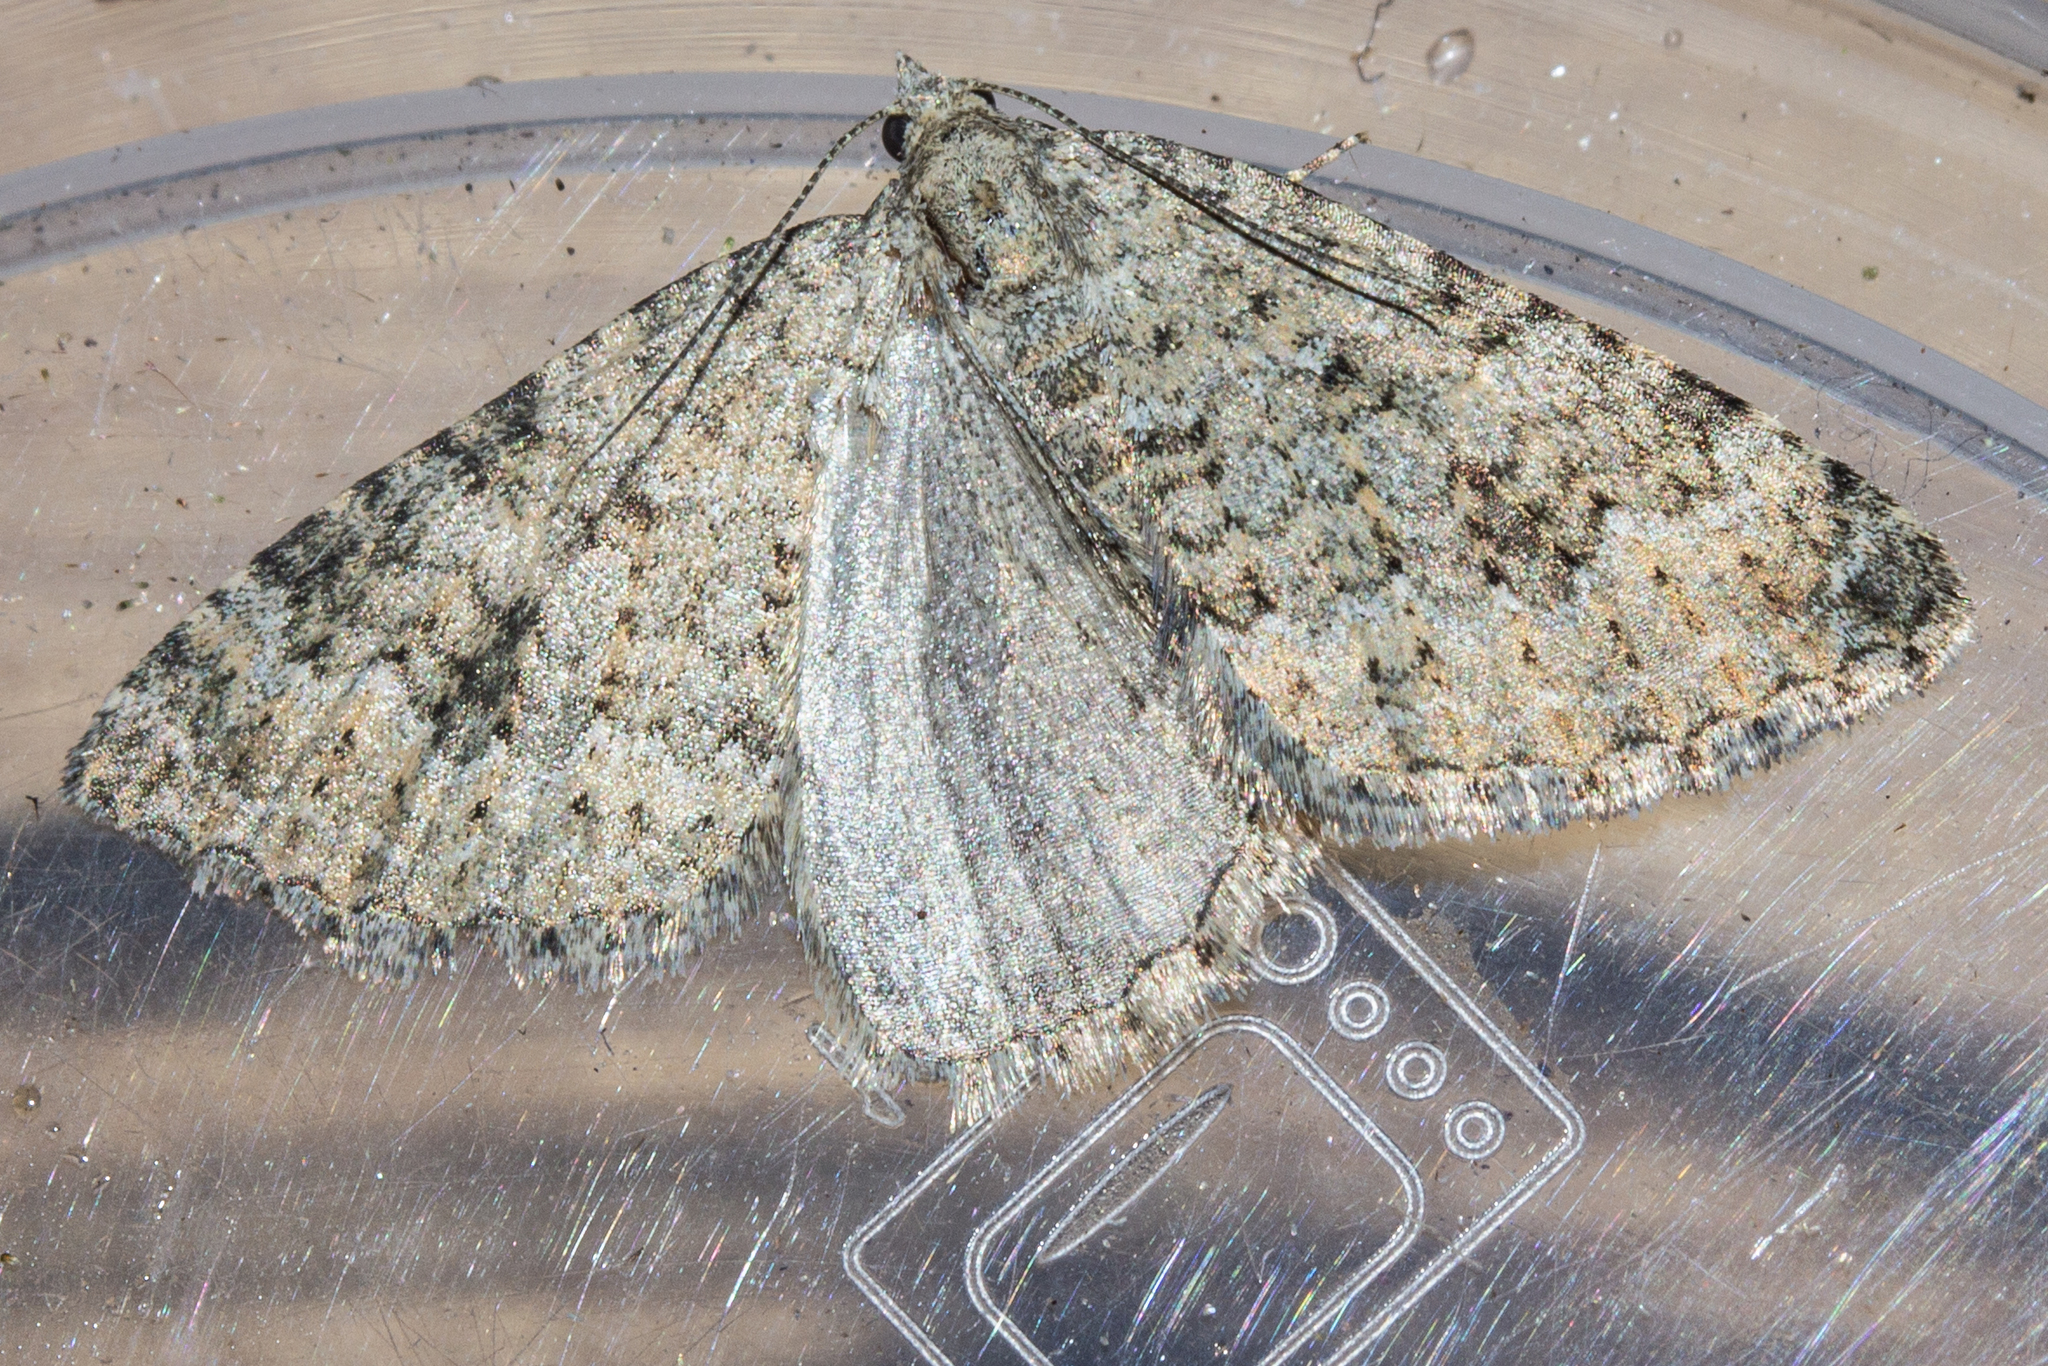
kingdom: Animalia
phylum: Arthropoda
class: Insecta
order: Lepidoptera
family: Geometridae
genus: Helastia
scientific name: Helastia corcularia
